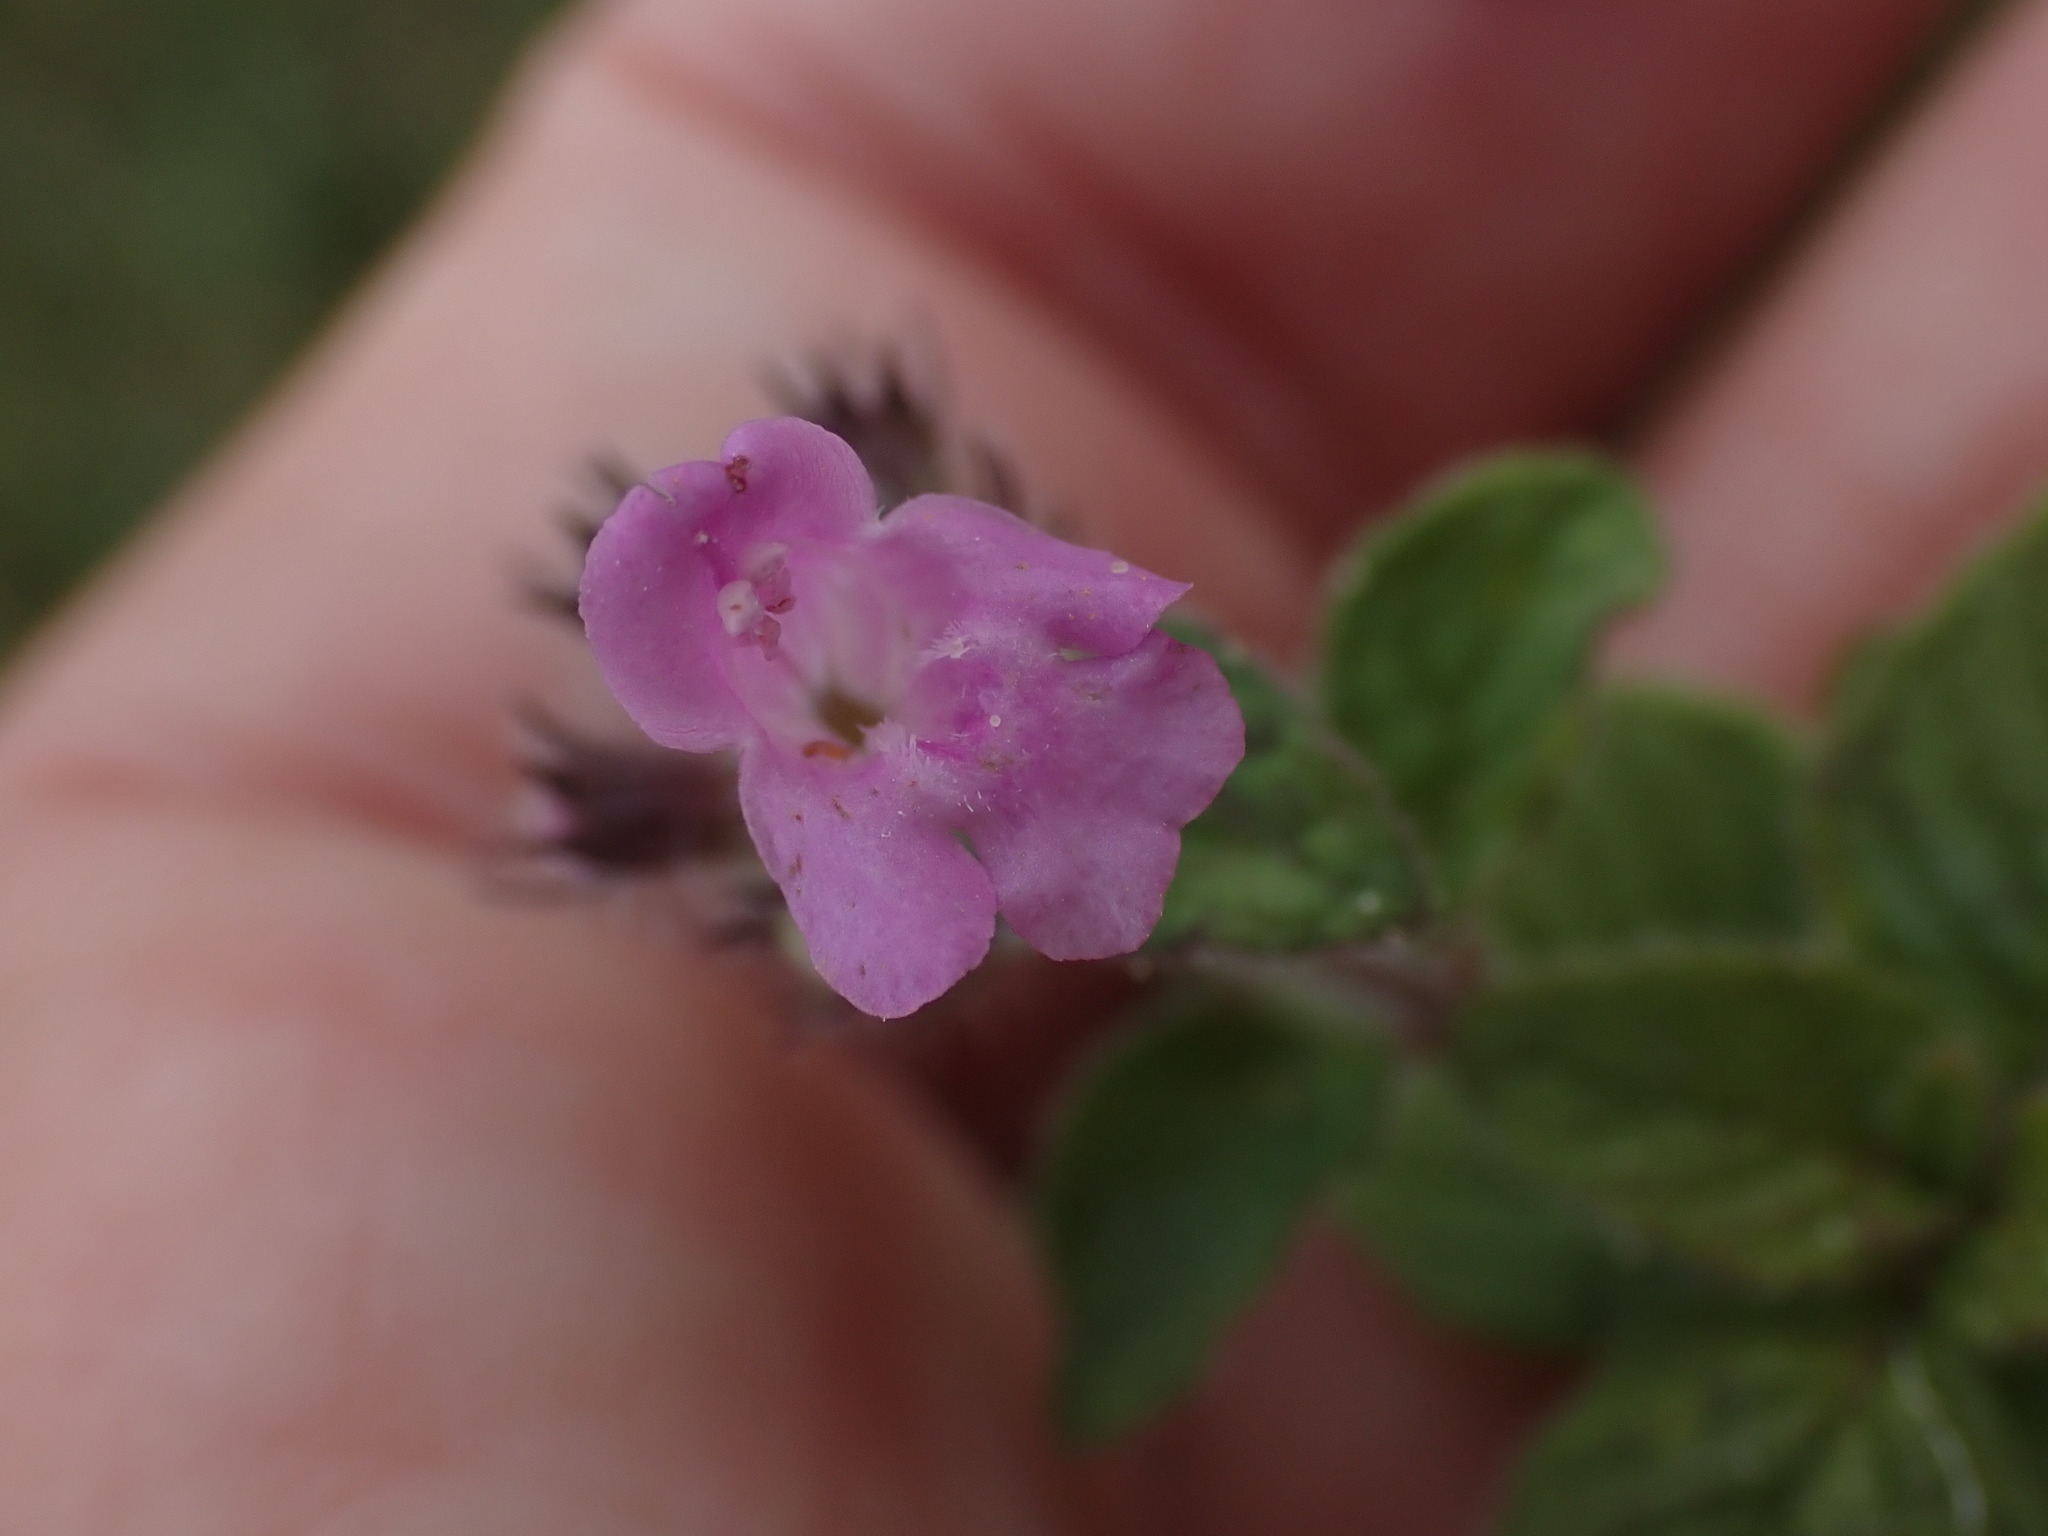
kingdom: Plantae
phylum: Tracheophyta
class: Magnoliopsida
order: Lamiales
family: Lamiaceae
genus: Clinopodium
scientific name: Clinopodium vulgare
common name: Wild basil
